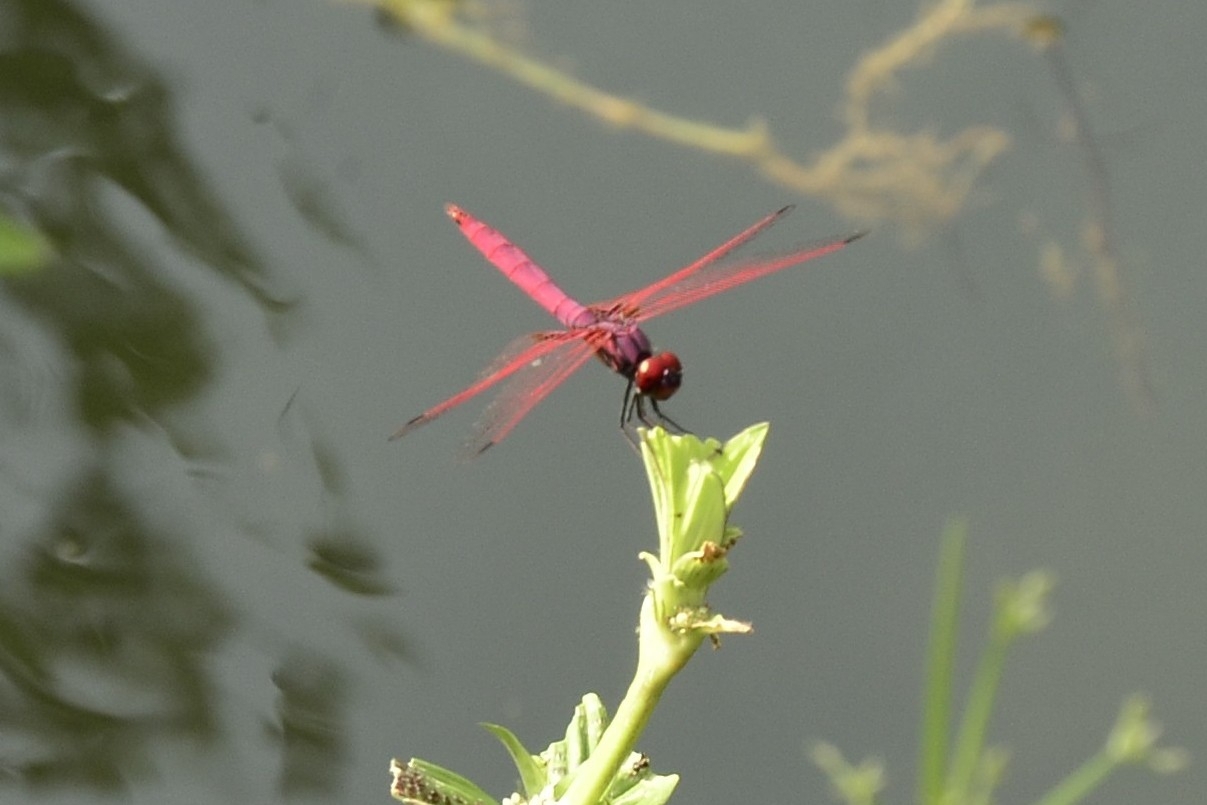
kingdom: Animalia
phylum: Arthropoda
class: Insecta
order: Odonata
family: Libellulidae
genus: Trithemis
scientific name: Trithemis aurora
